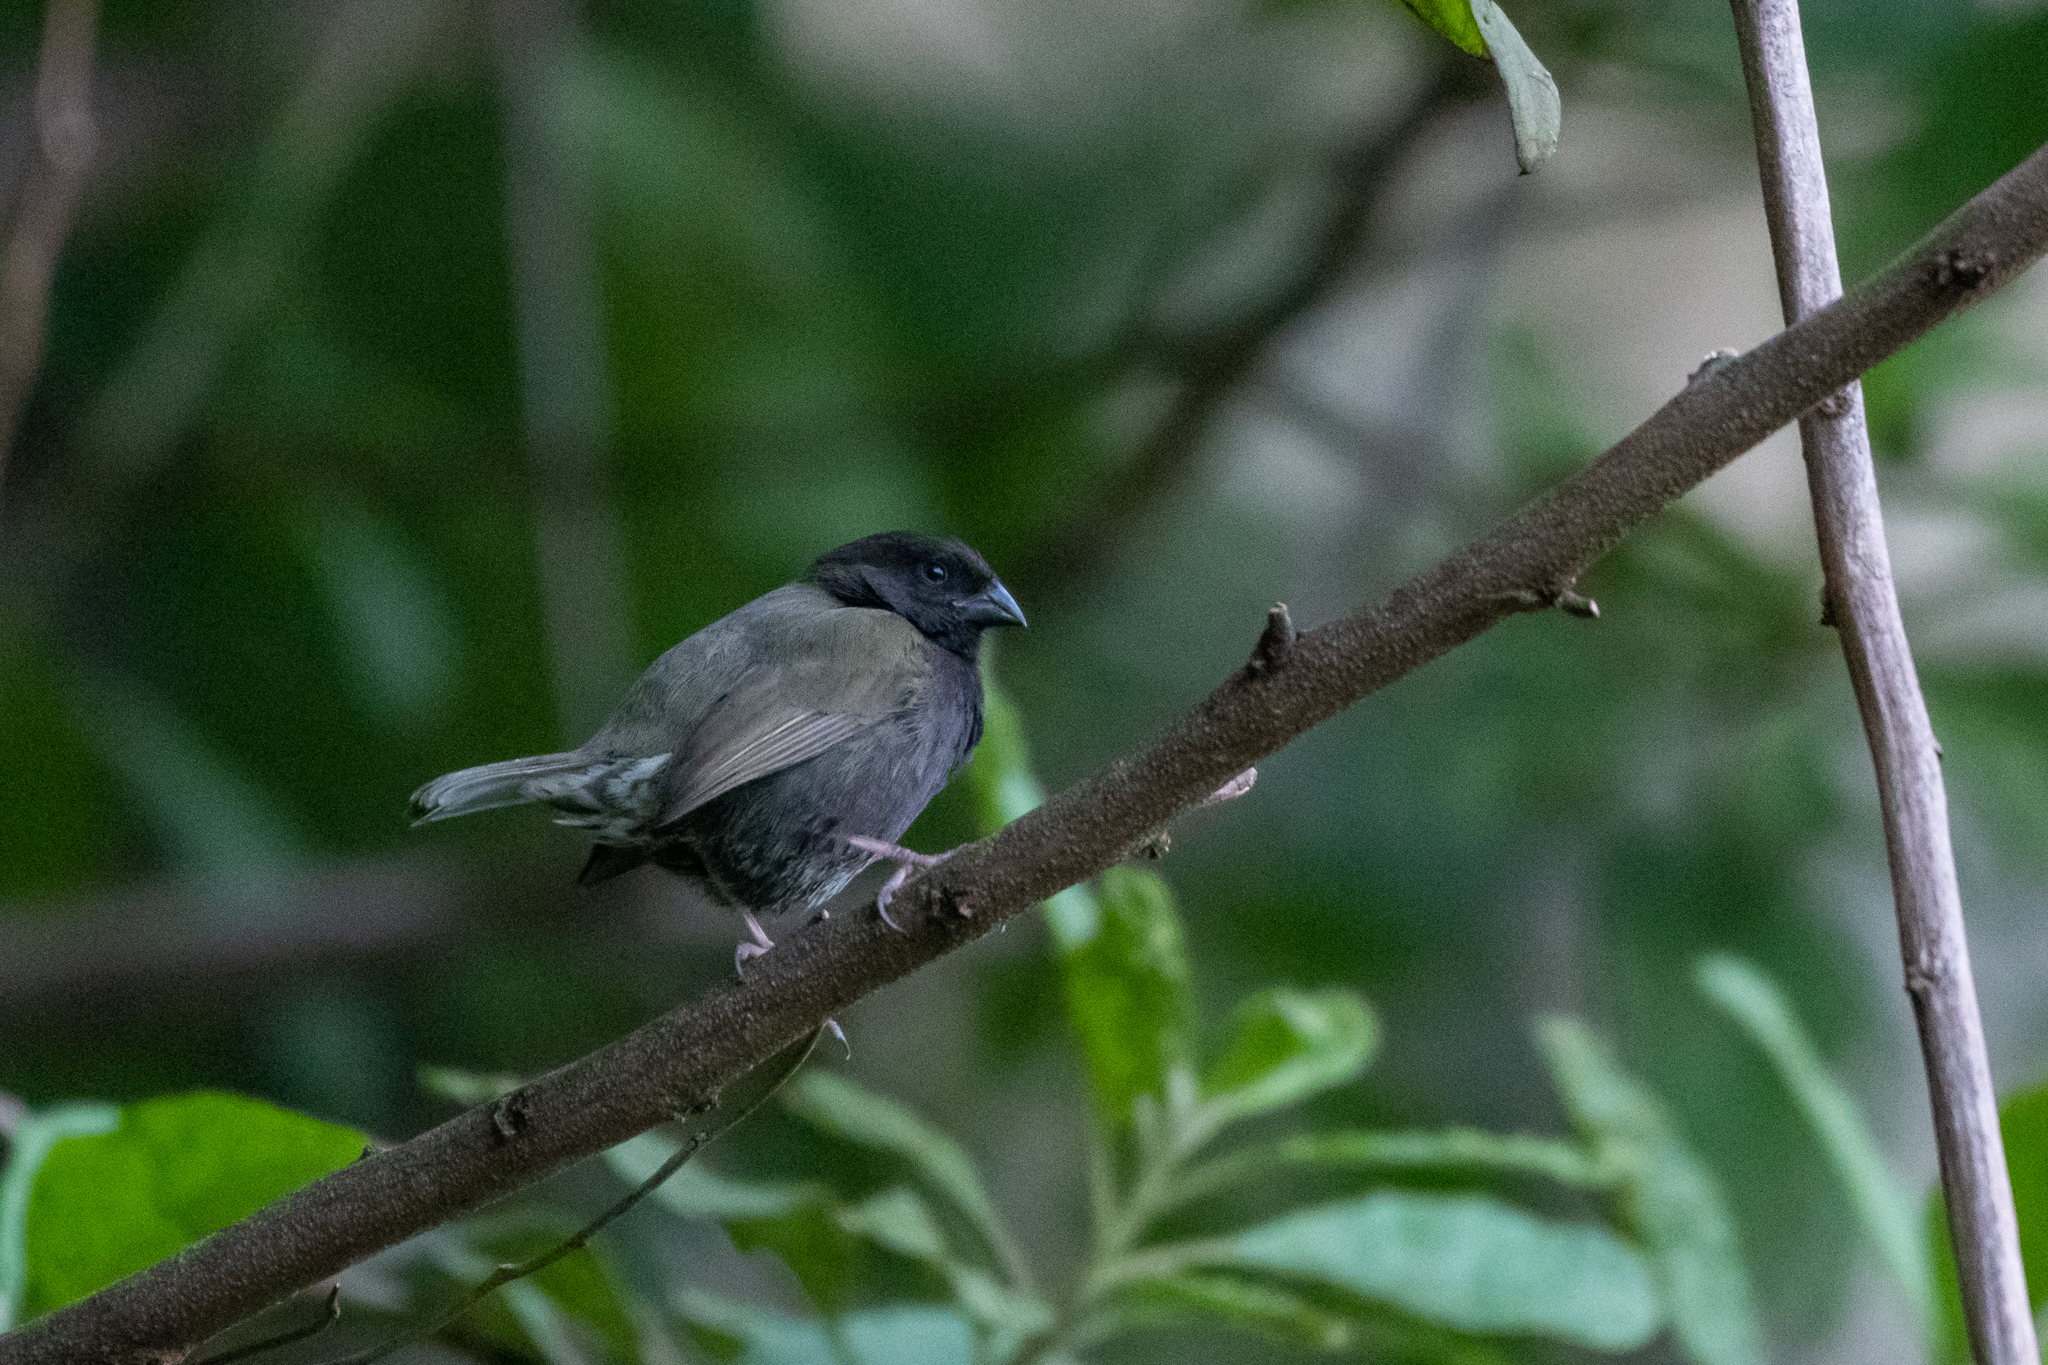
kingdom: Animalia
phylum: Chordata
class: Aves
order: Passeriformes
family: Thraupidae
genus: Melanospiza
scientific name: Melanospiza bicolor
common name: Black-faced grassquit
